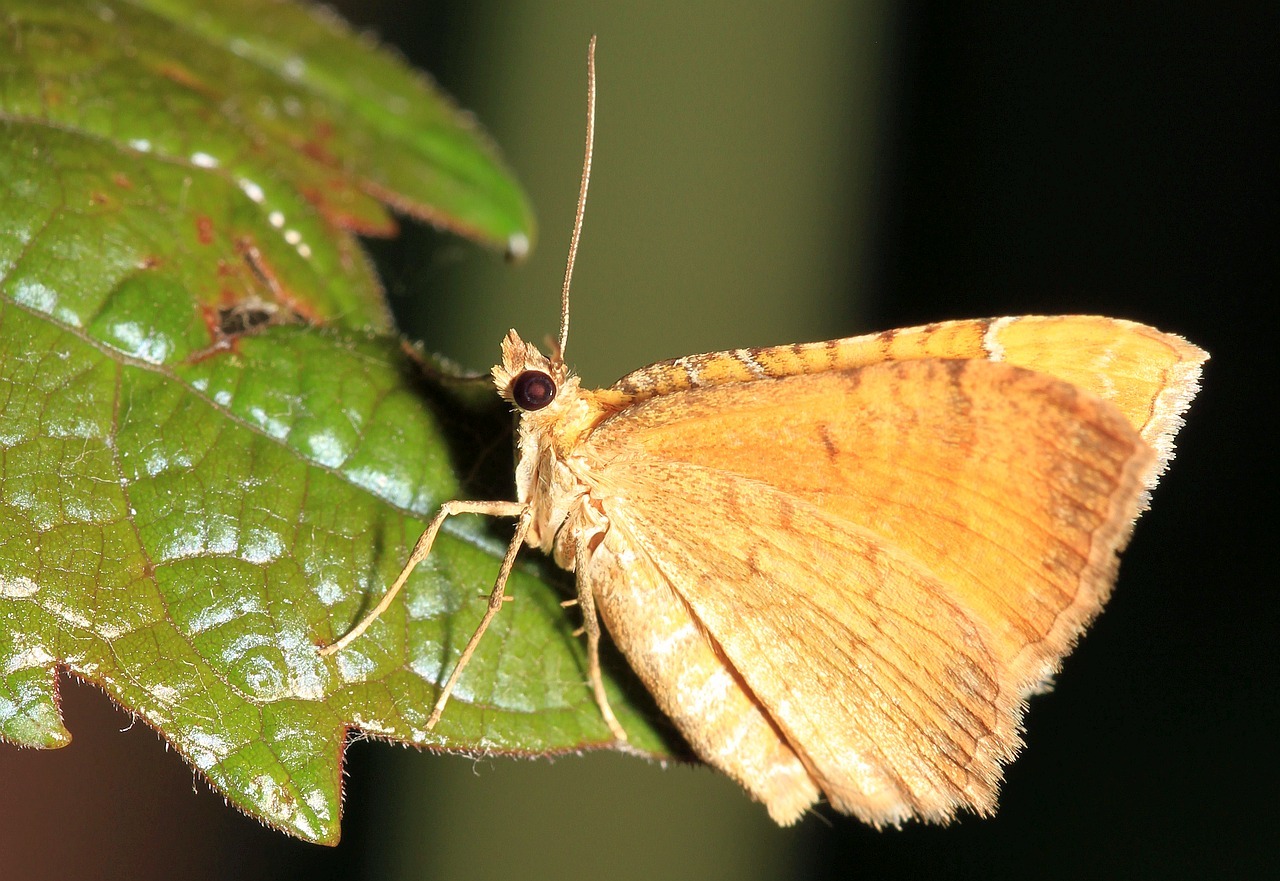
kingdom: Animalia
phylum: Arthropoda
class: Insecta
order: Lepidoptera
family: Geometridae
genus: Camptogramma
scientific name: Camptogramma bilineata
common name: Yellow shell
